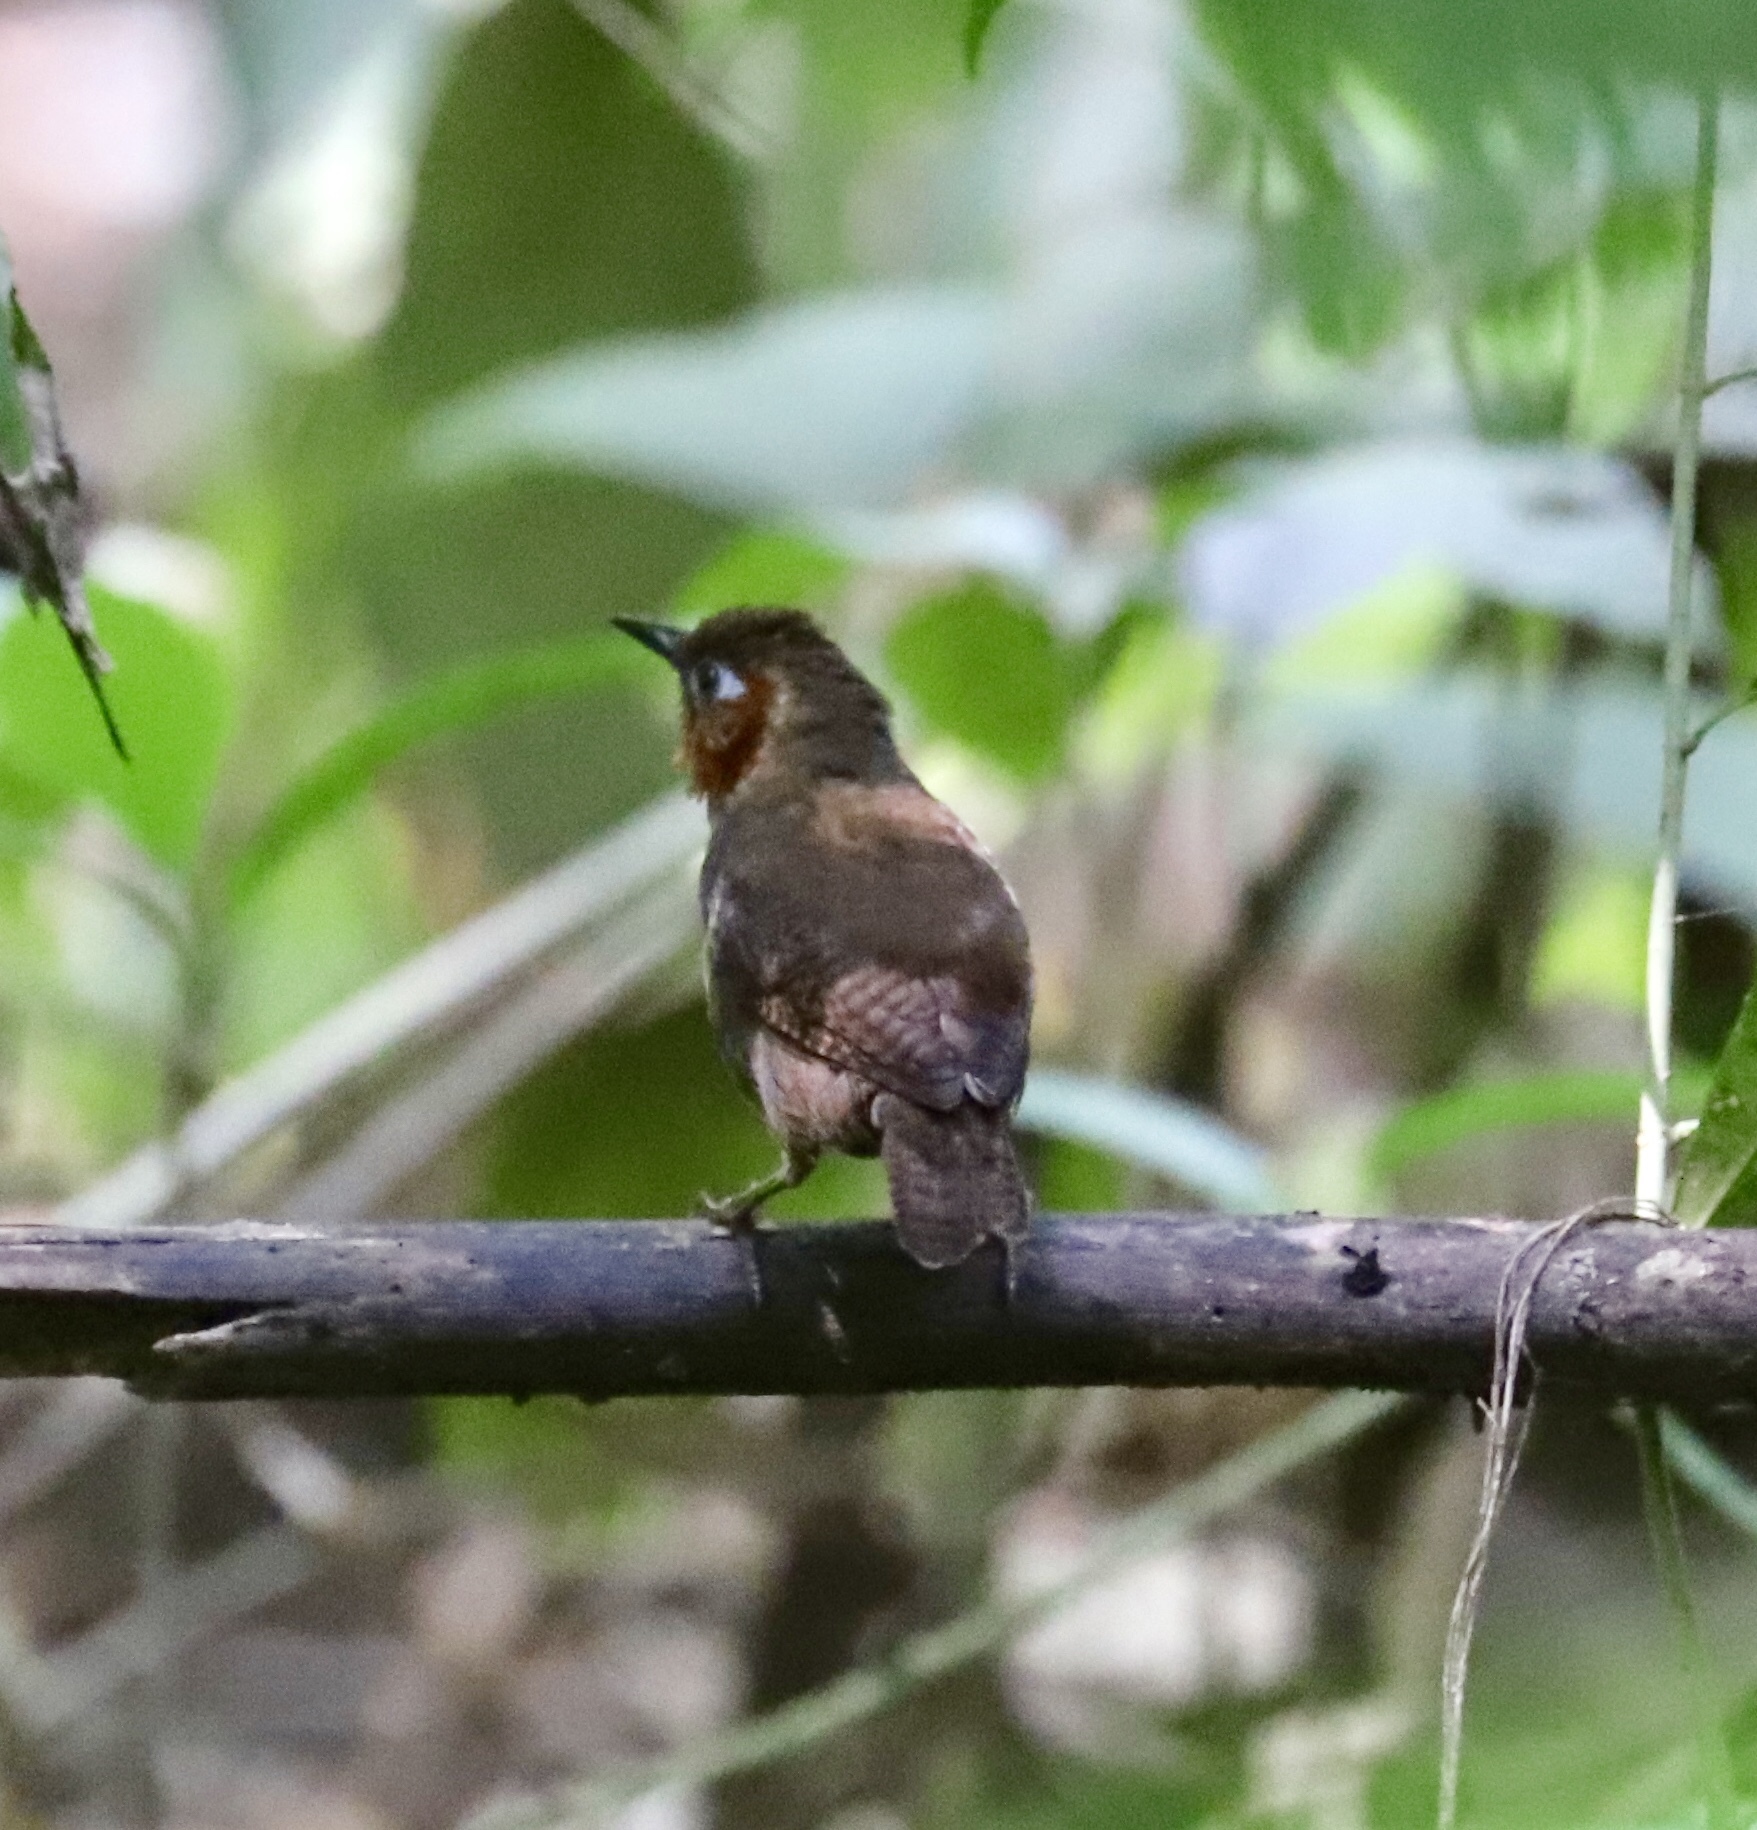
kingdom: Animalia
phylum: Chordata
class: Aves
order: Passeriformes
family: Troglodytidae
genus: Cyphorhinus
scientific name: Cyphorhinus phaeocephalus
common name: Song wren
